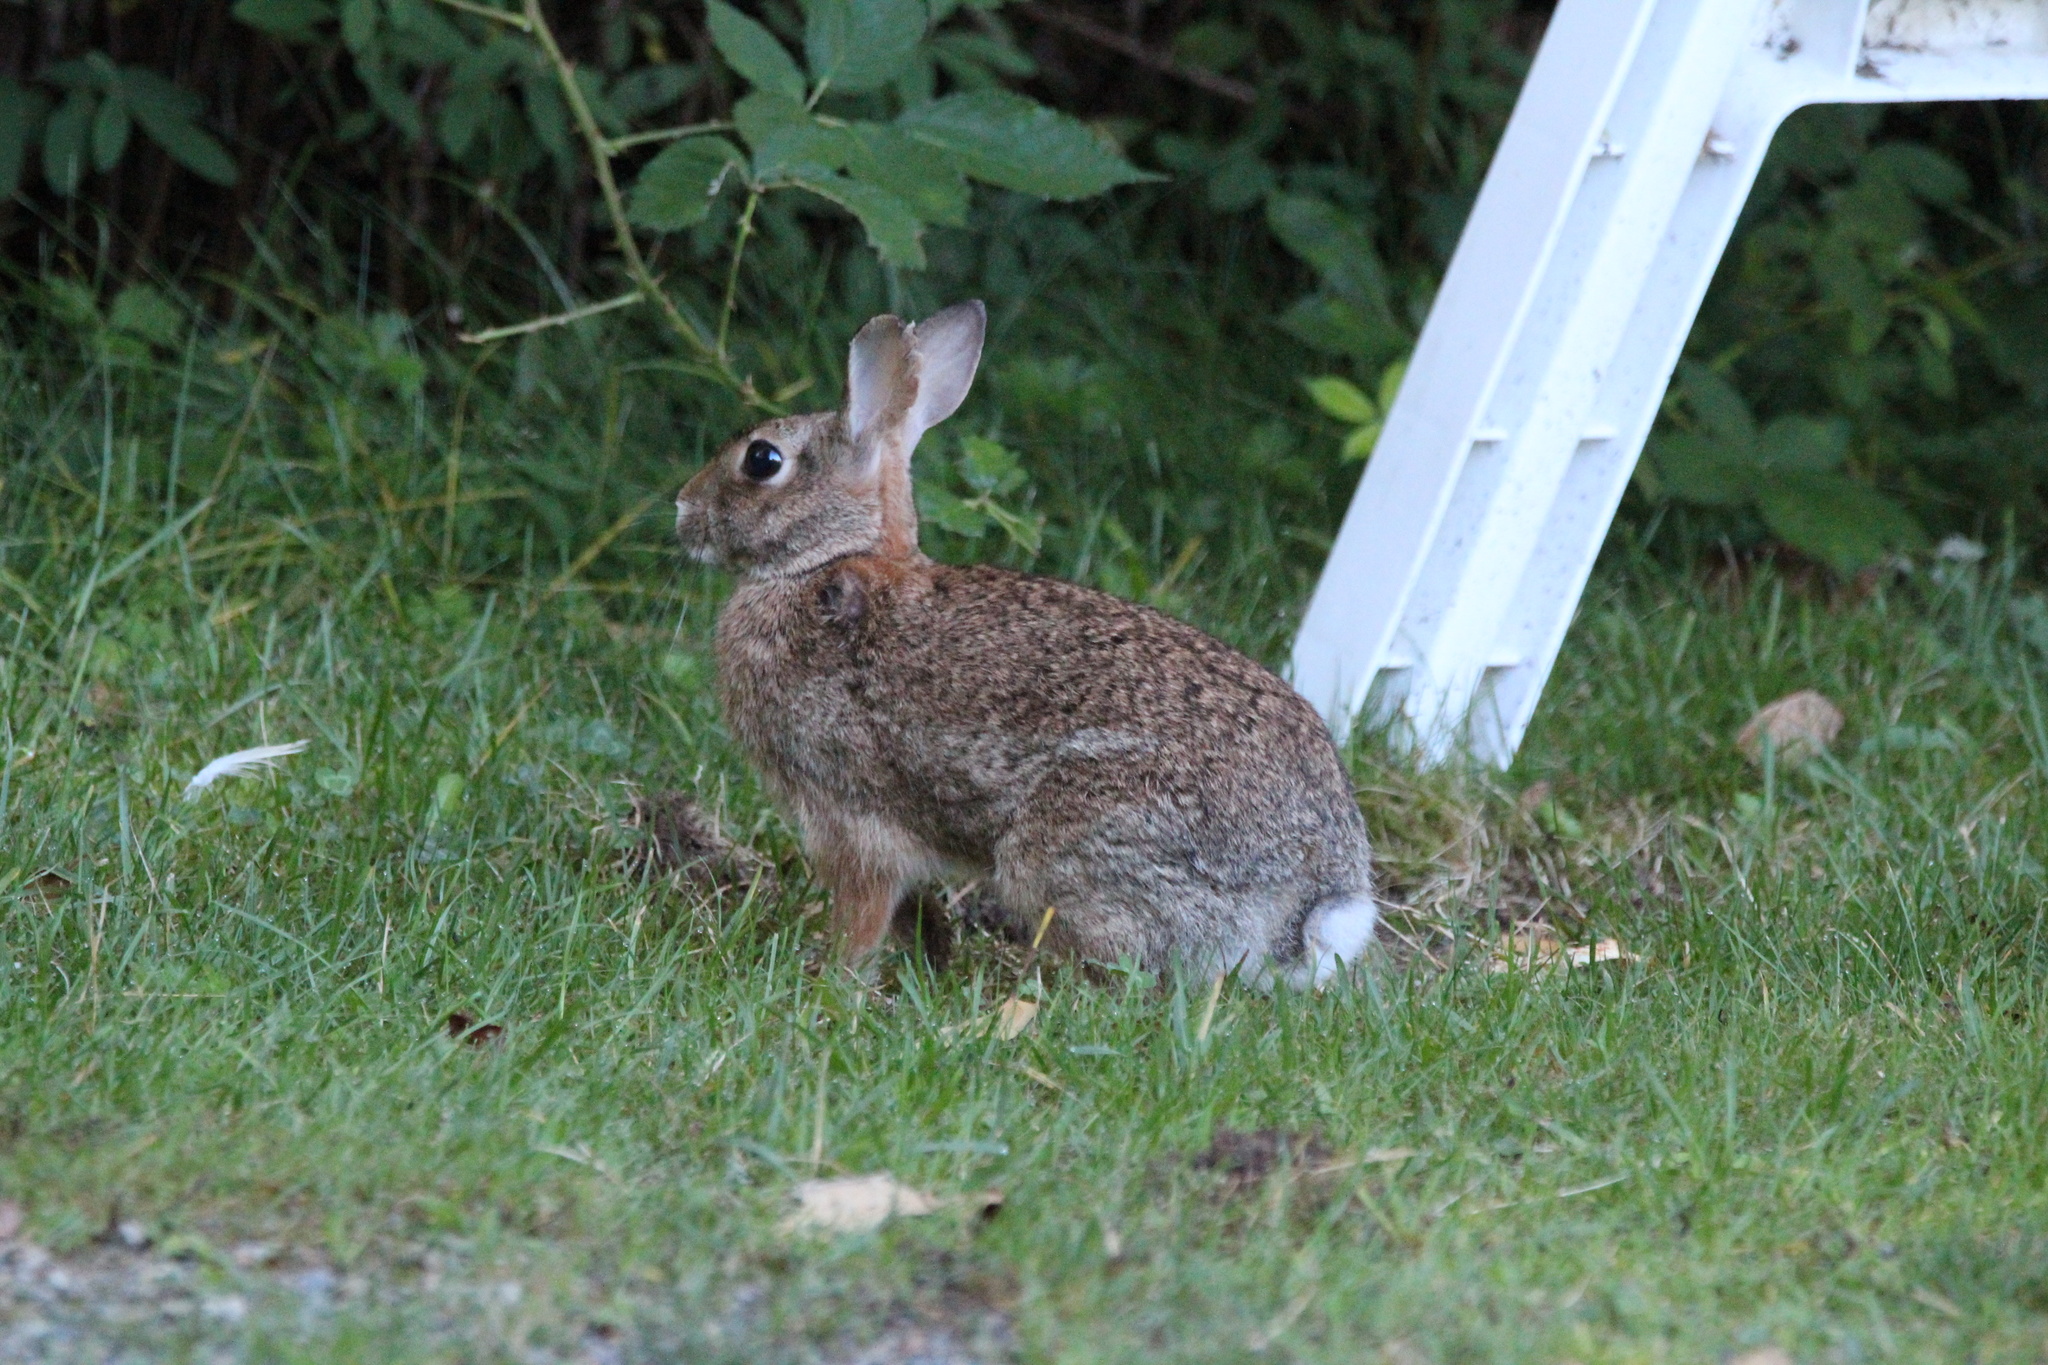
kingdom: Animalia
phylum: Chordata
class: Mammalia
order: Lagomorpha
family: Leporidae
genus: Sylvilagus
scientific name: Sylvilagus floridanus
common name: Eastern cottontail
